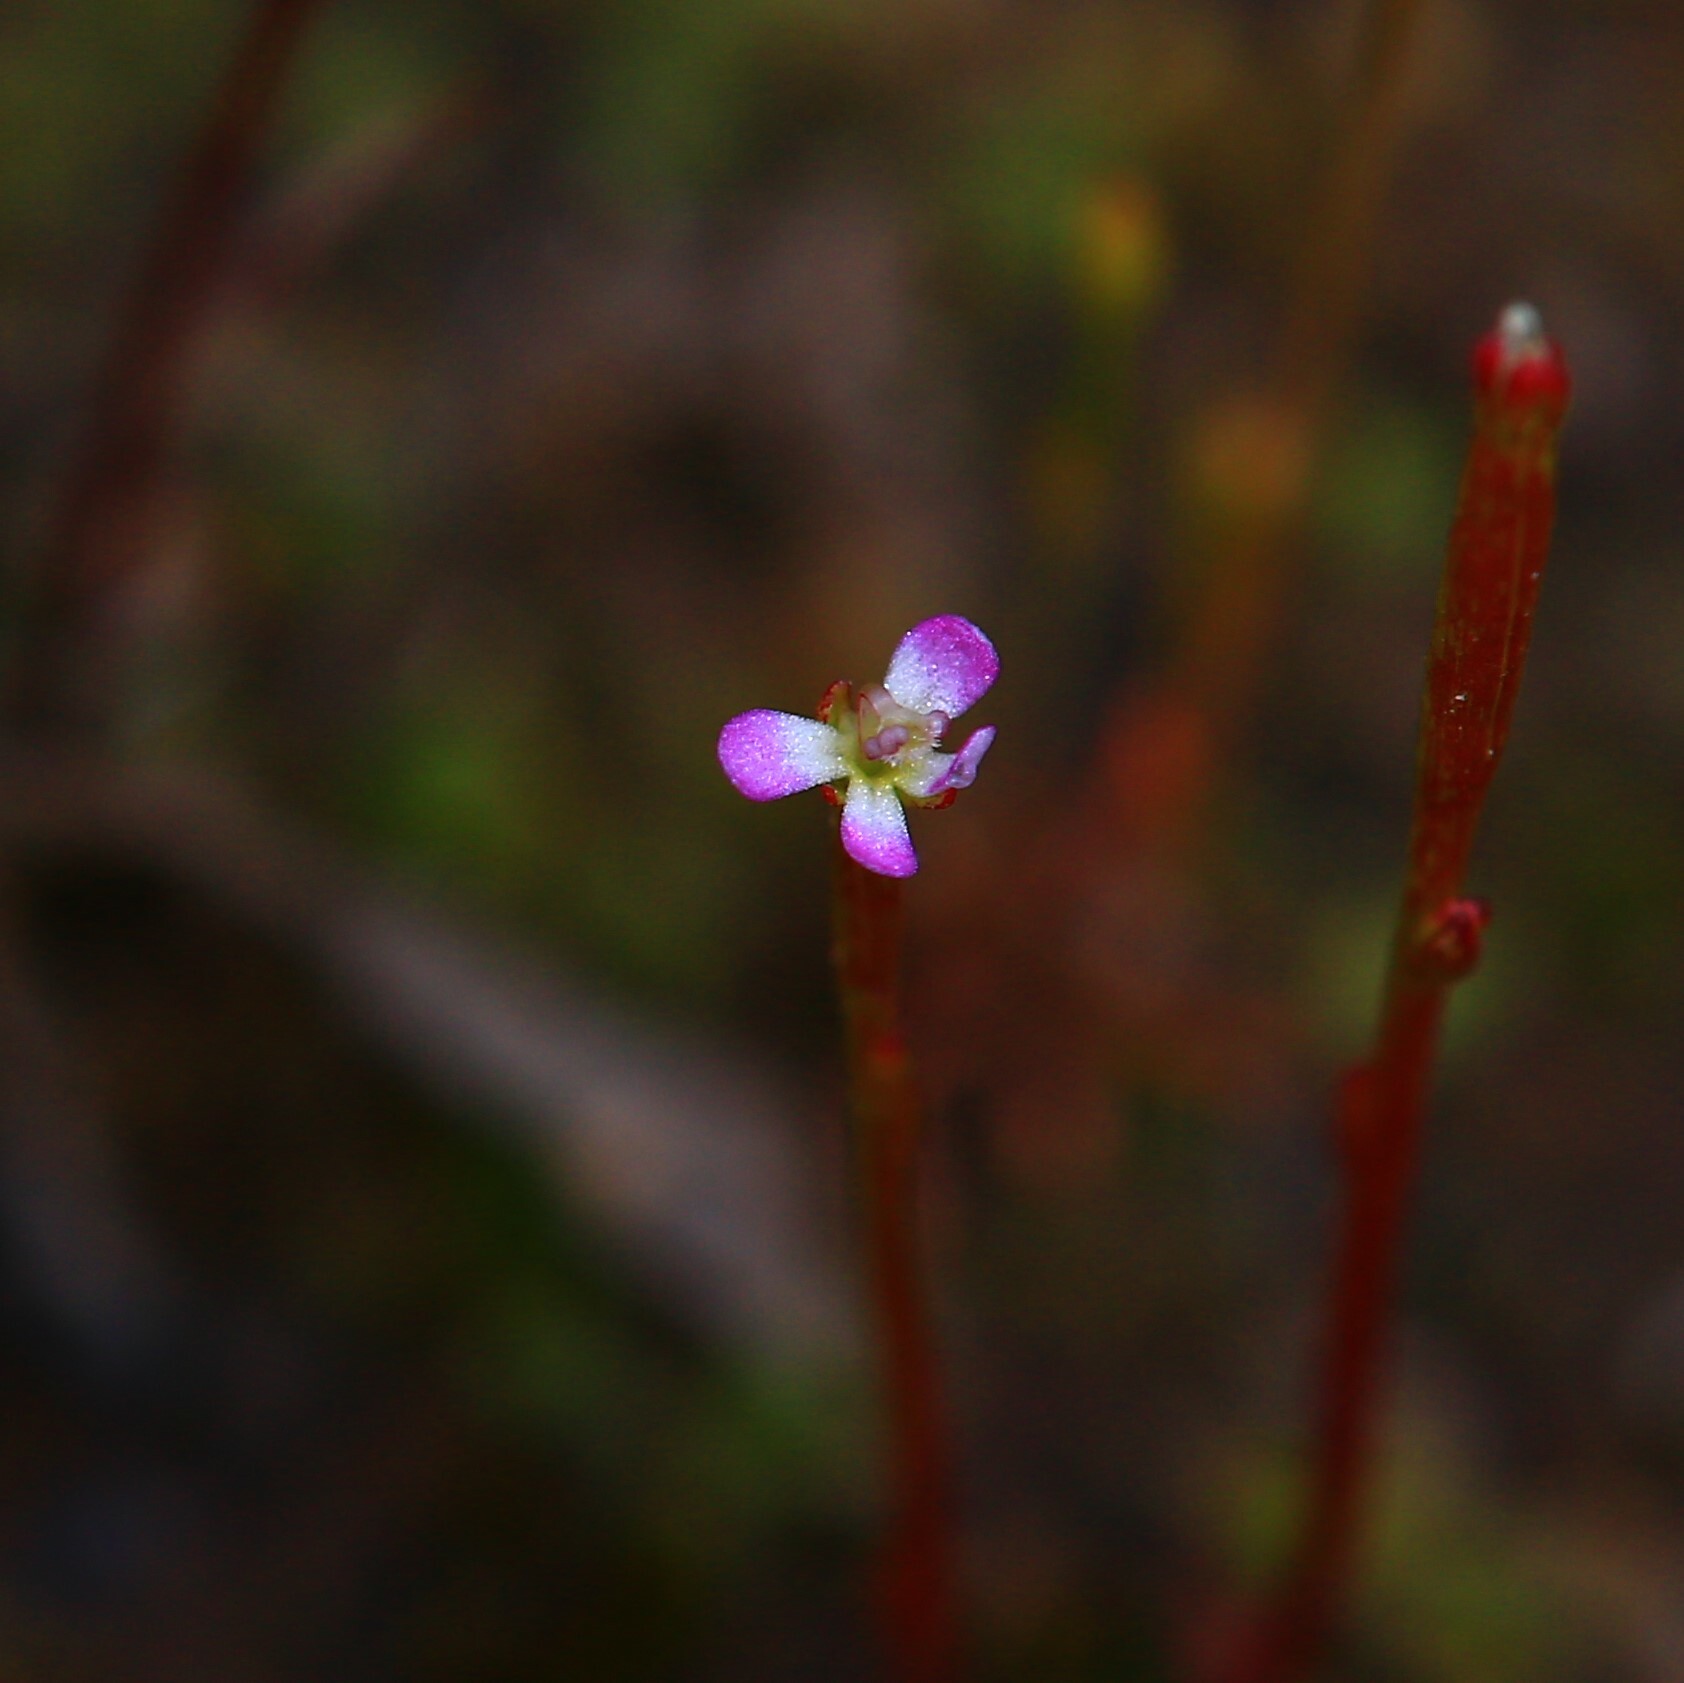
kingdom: Plantae
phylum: Tracheophyta
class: Magnoliopsida
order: Asterales
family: Stylidiaceae
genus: Stylidium
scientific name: Stylidium despectum
